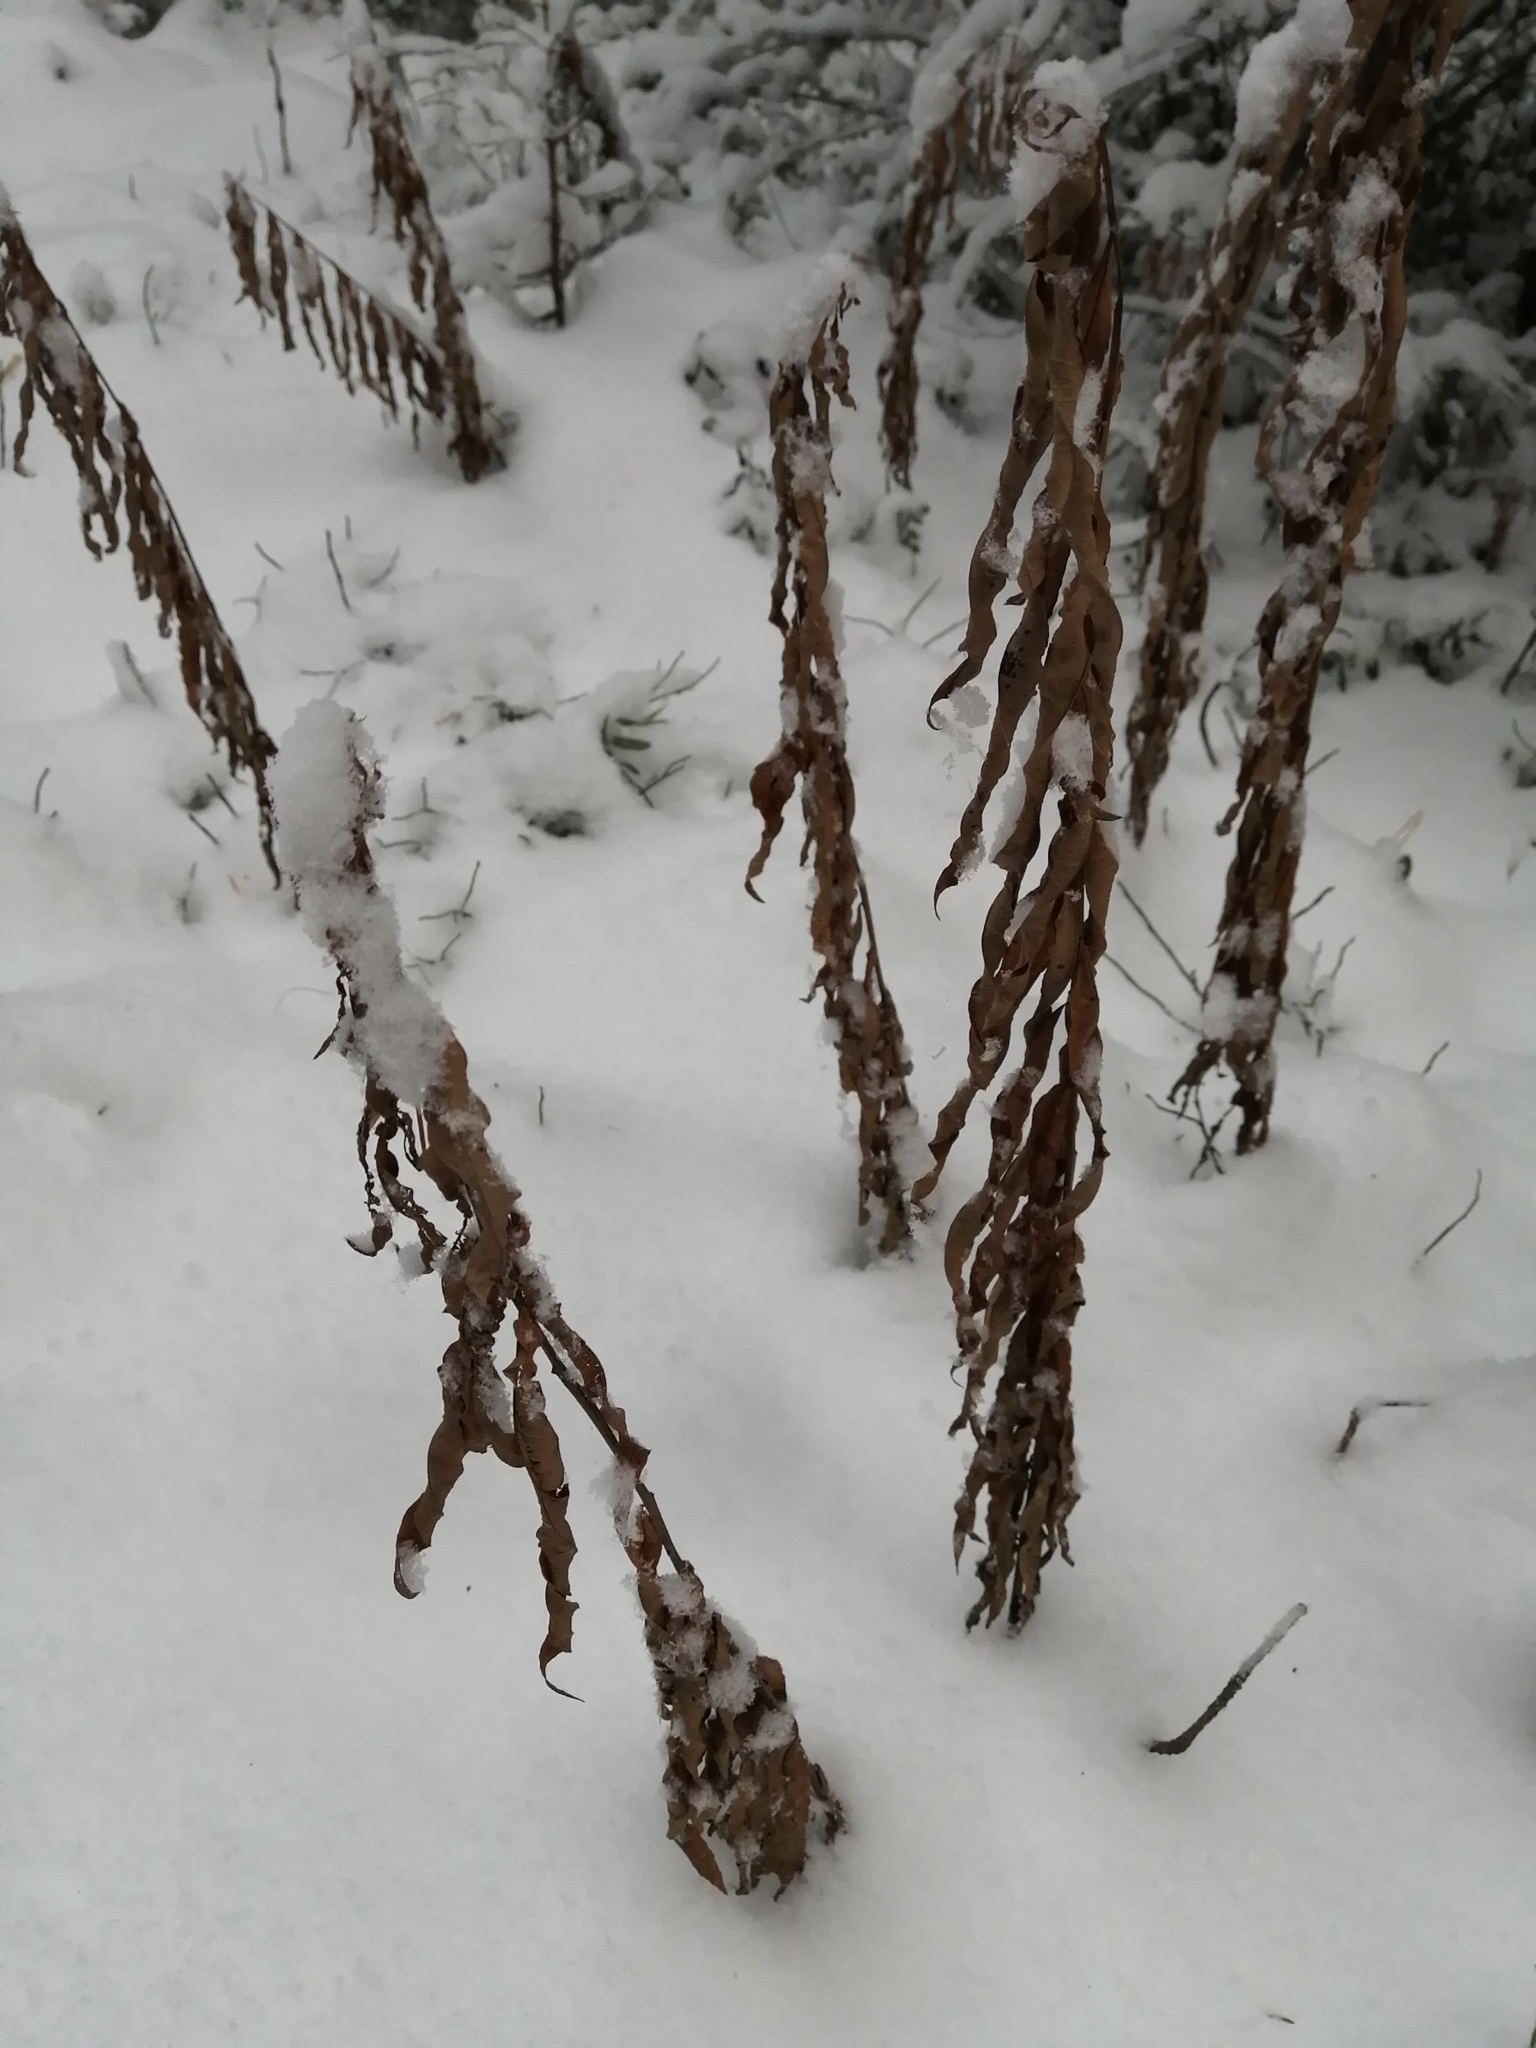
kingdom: Plantae
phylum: Tracheophyta
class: Magnoliopsida
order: Myrtales
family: Onagraceae
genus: Chamaenerion
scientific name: Chamaenerion angustifolium
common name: Fireweed
